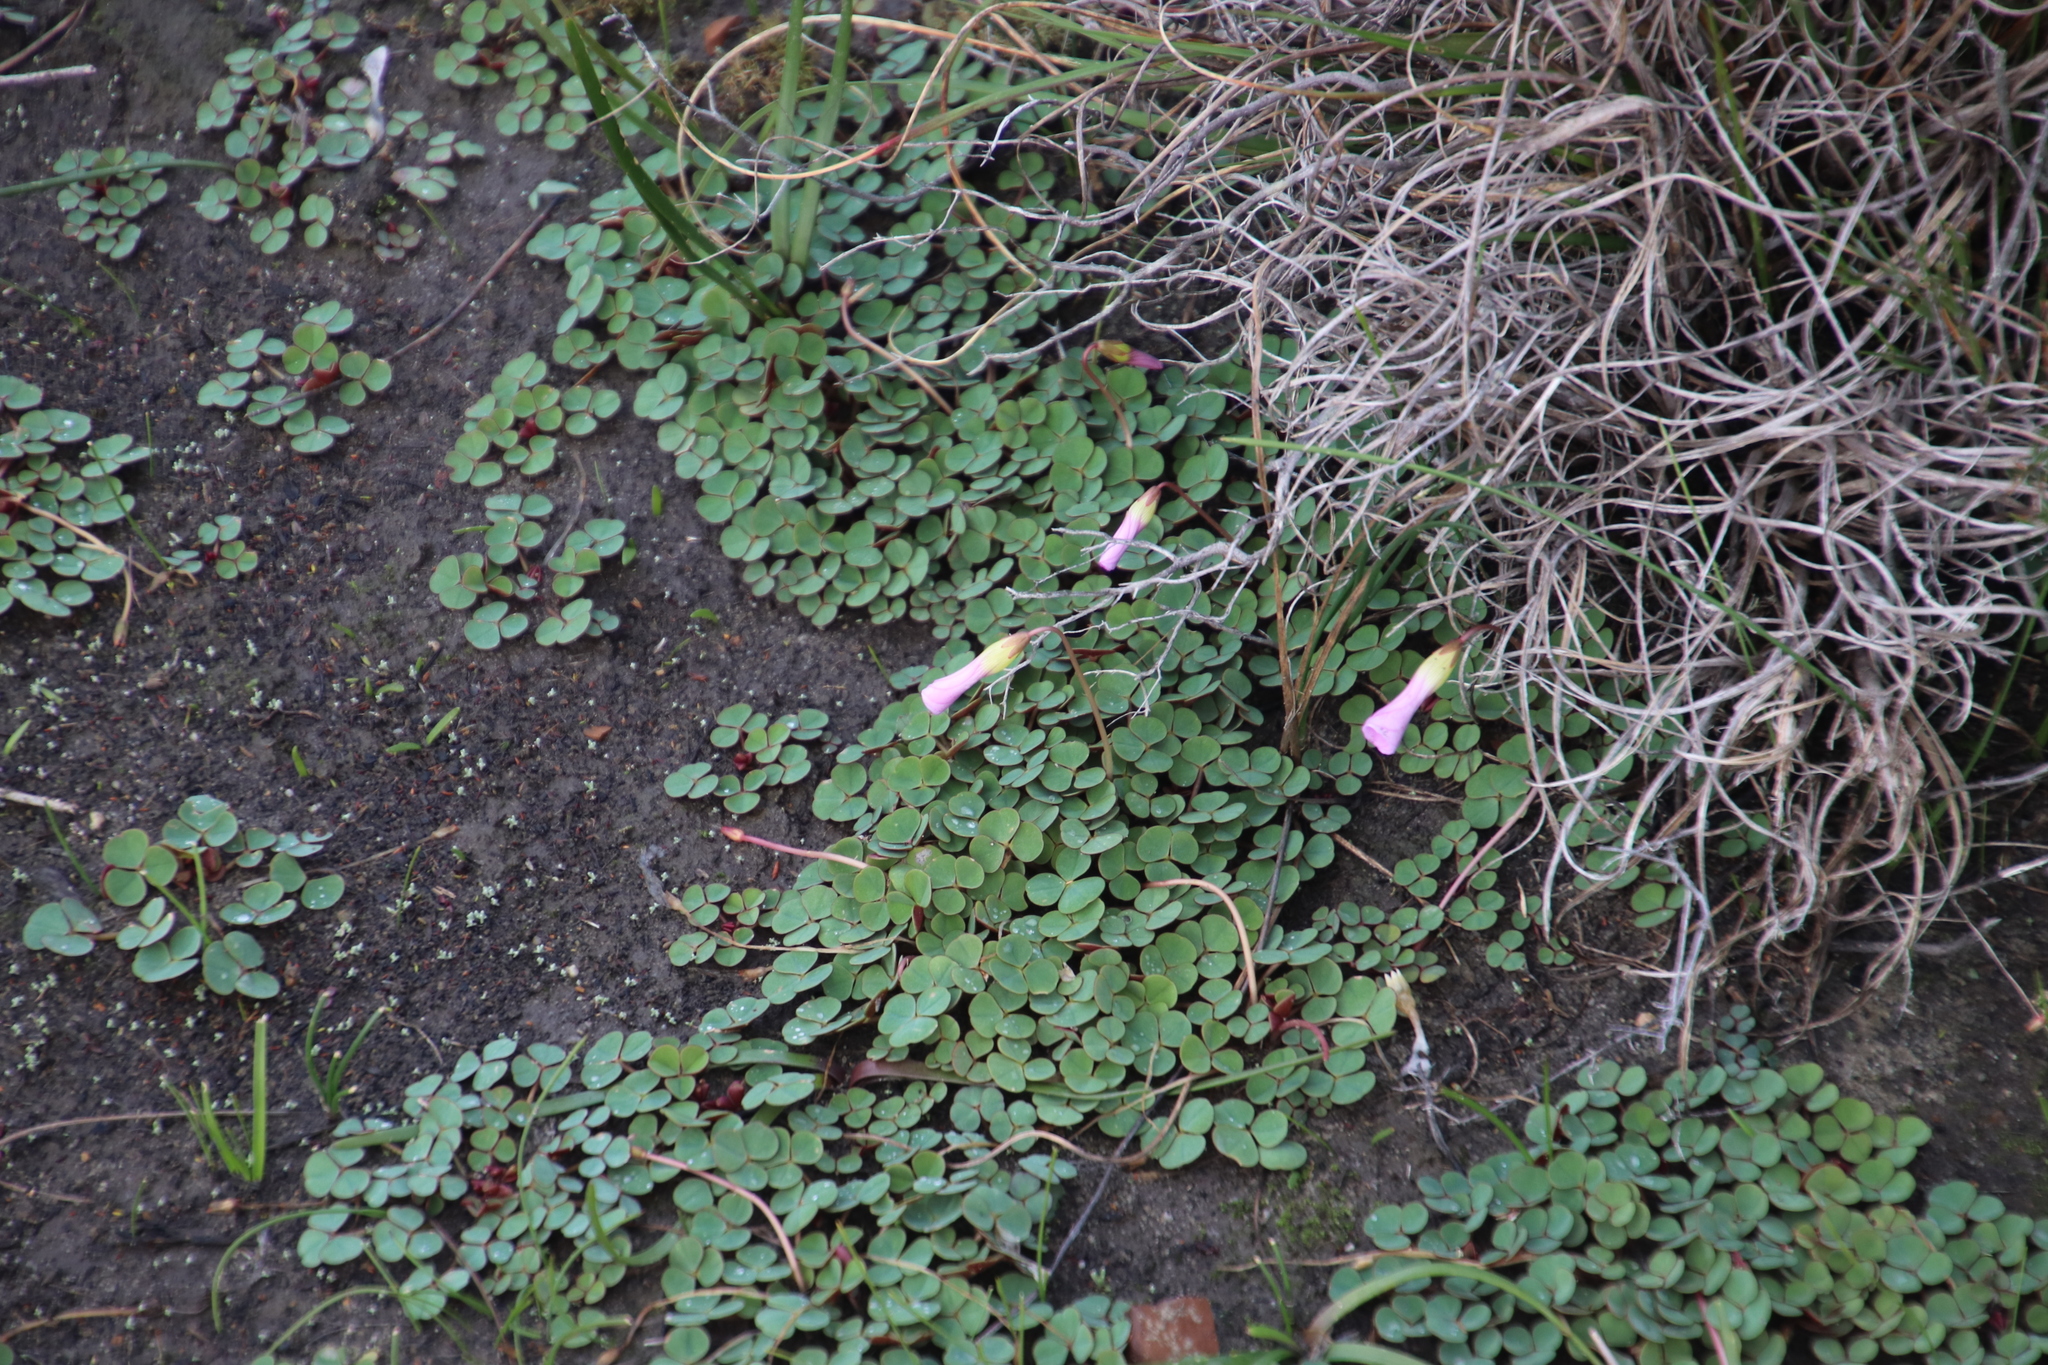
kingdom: Plantae
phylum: Tracheophyta
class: Magnoliopsida
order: Oxalidales
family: Oxalidaceae
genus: Oxalis
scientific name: Oxalis commutata
